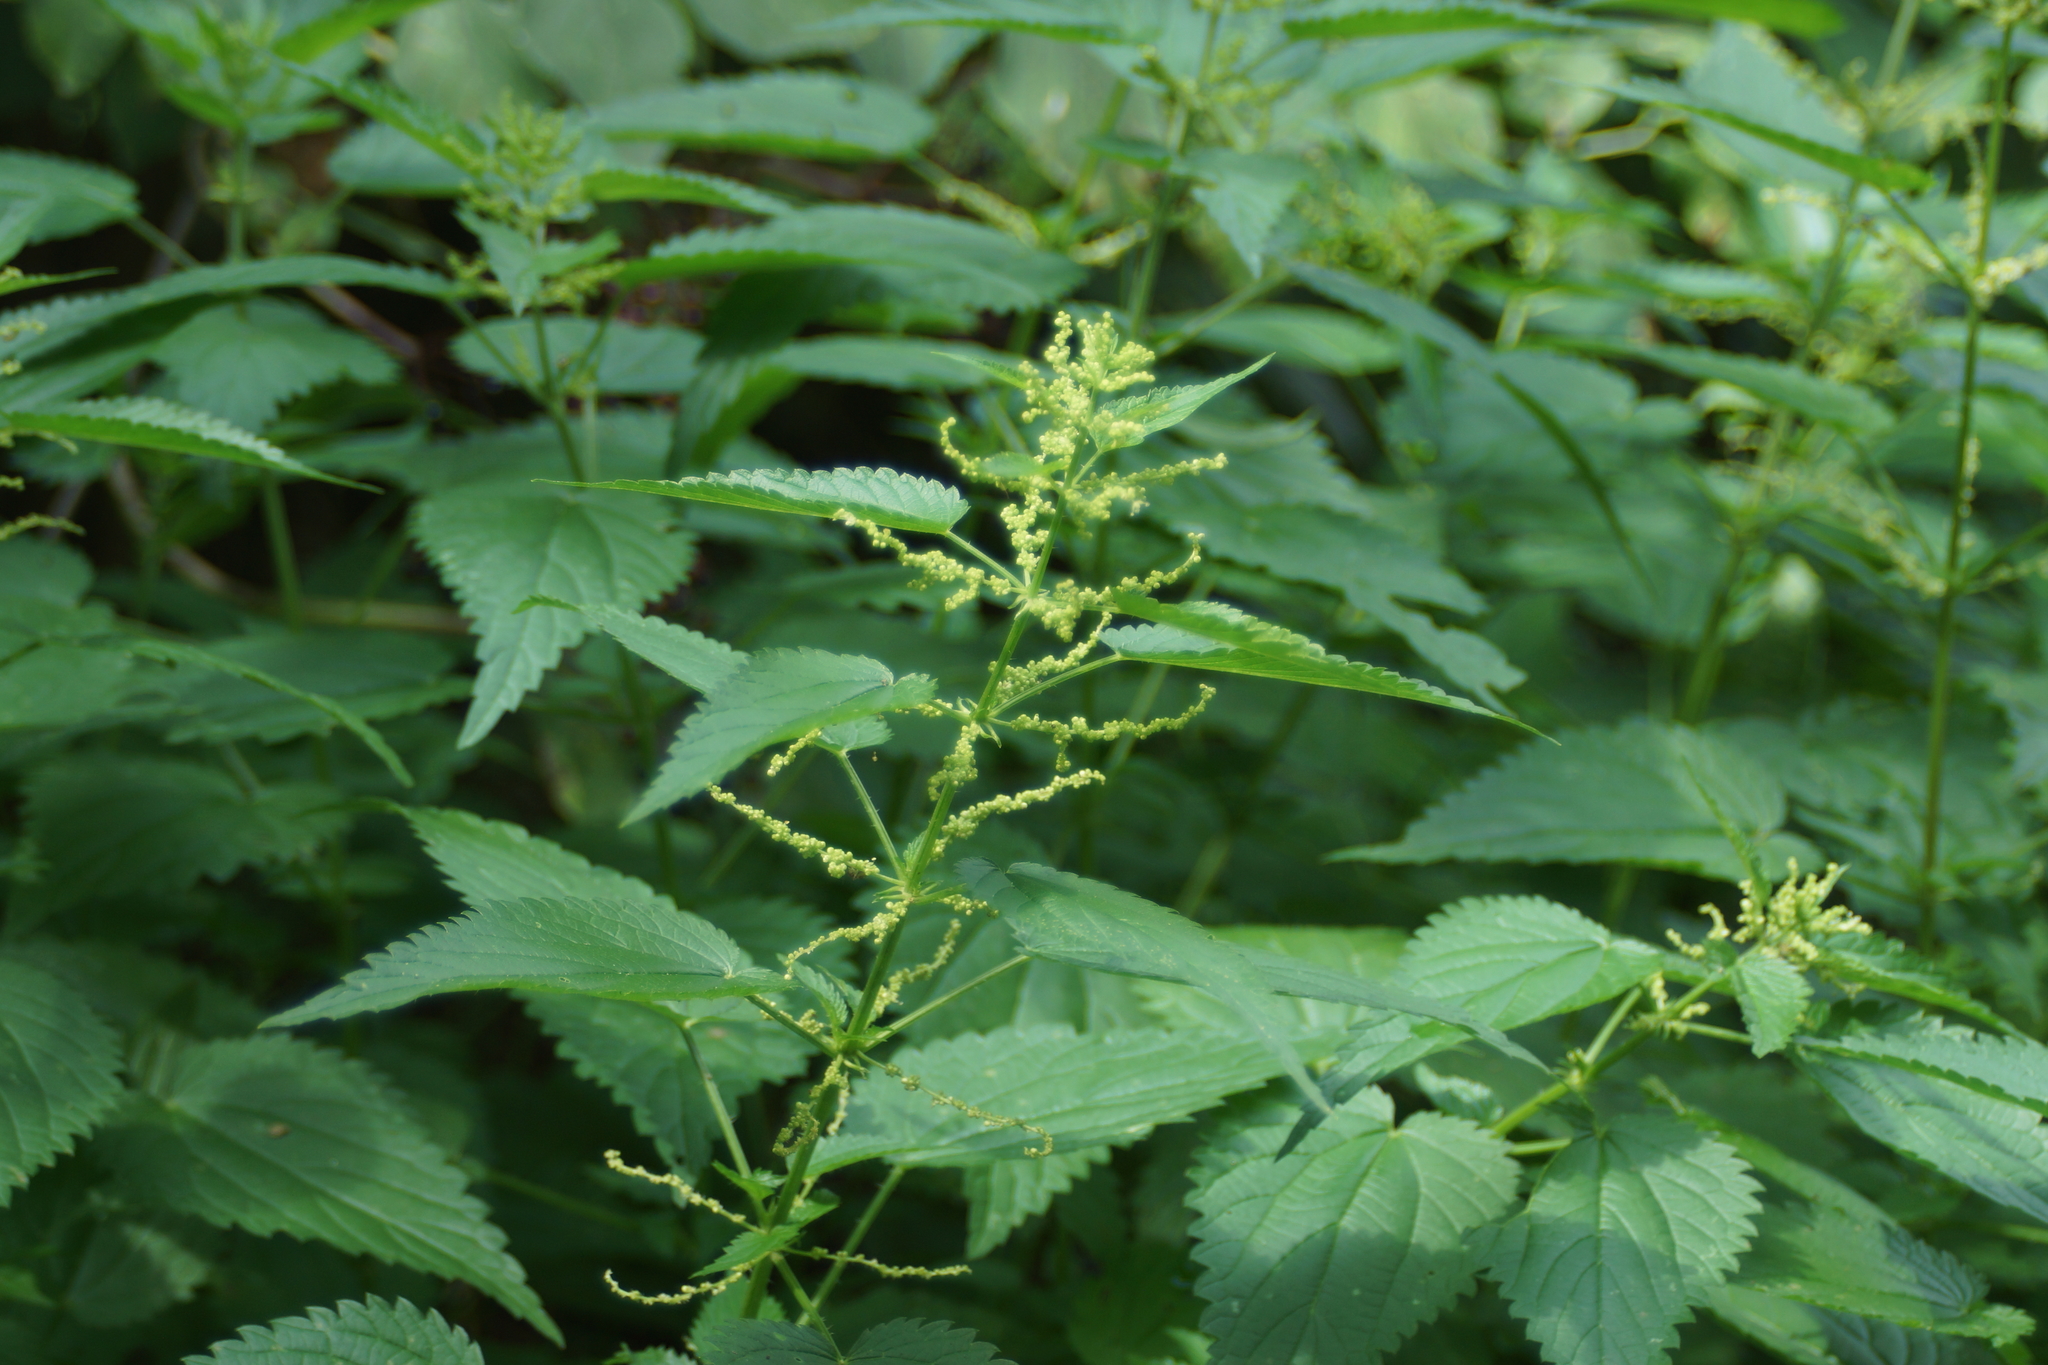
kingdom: Plantae
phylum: Tracheophyta
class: Magnoliopsida
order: Rosales
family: Urticaceae
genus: Urtica
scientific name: Urtica dioica
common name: Common nettle
